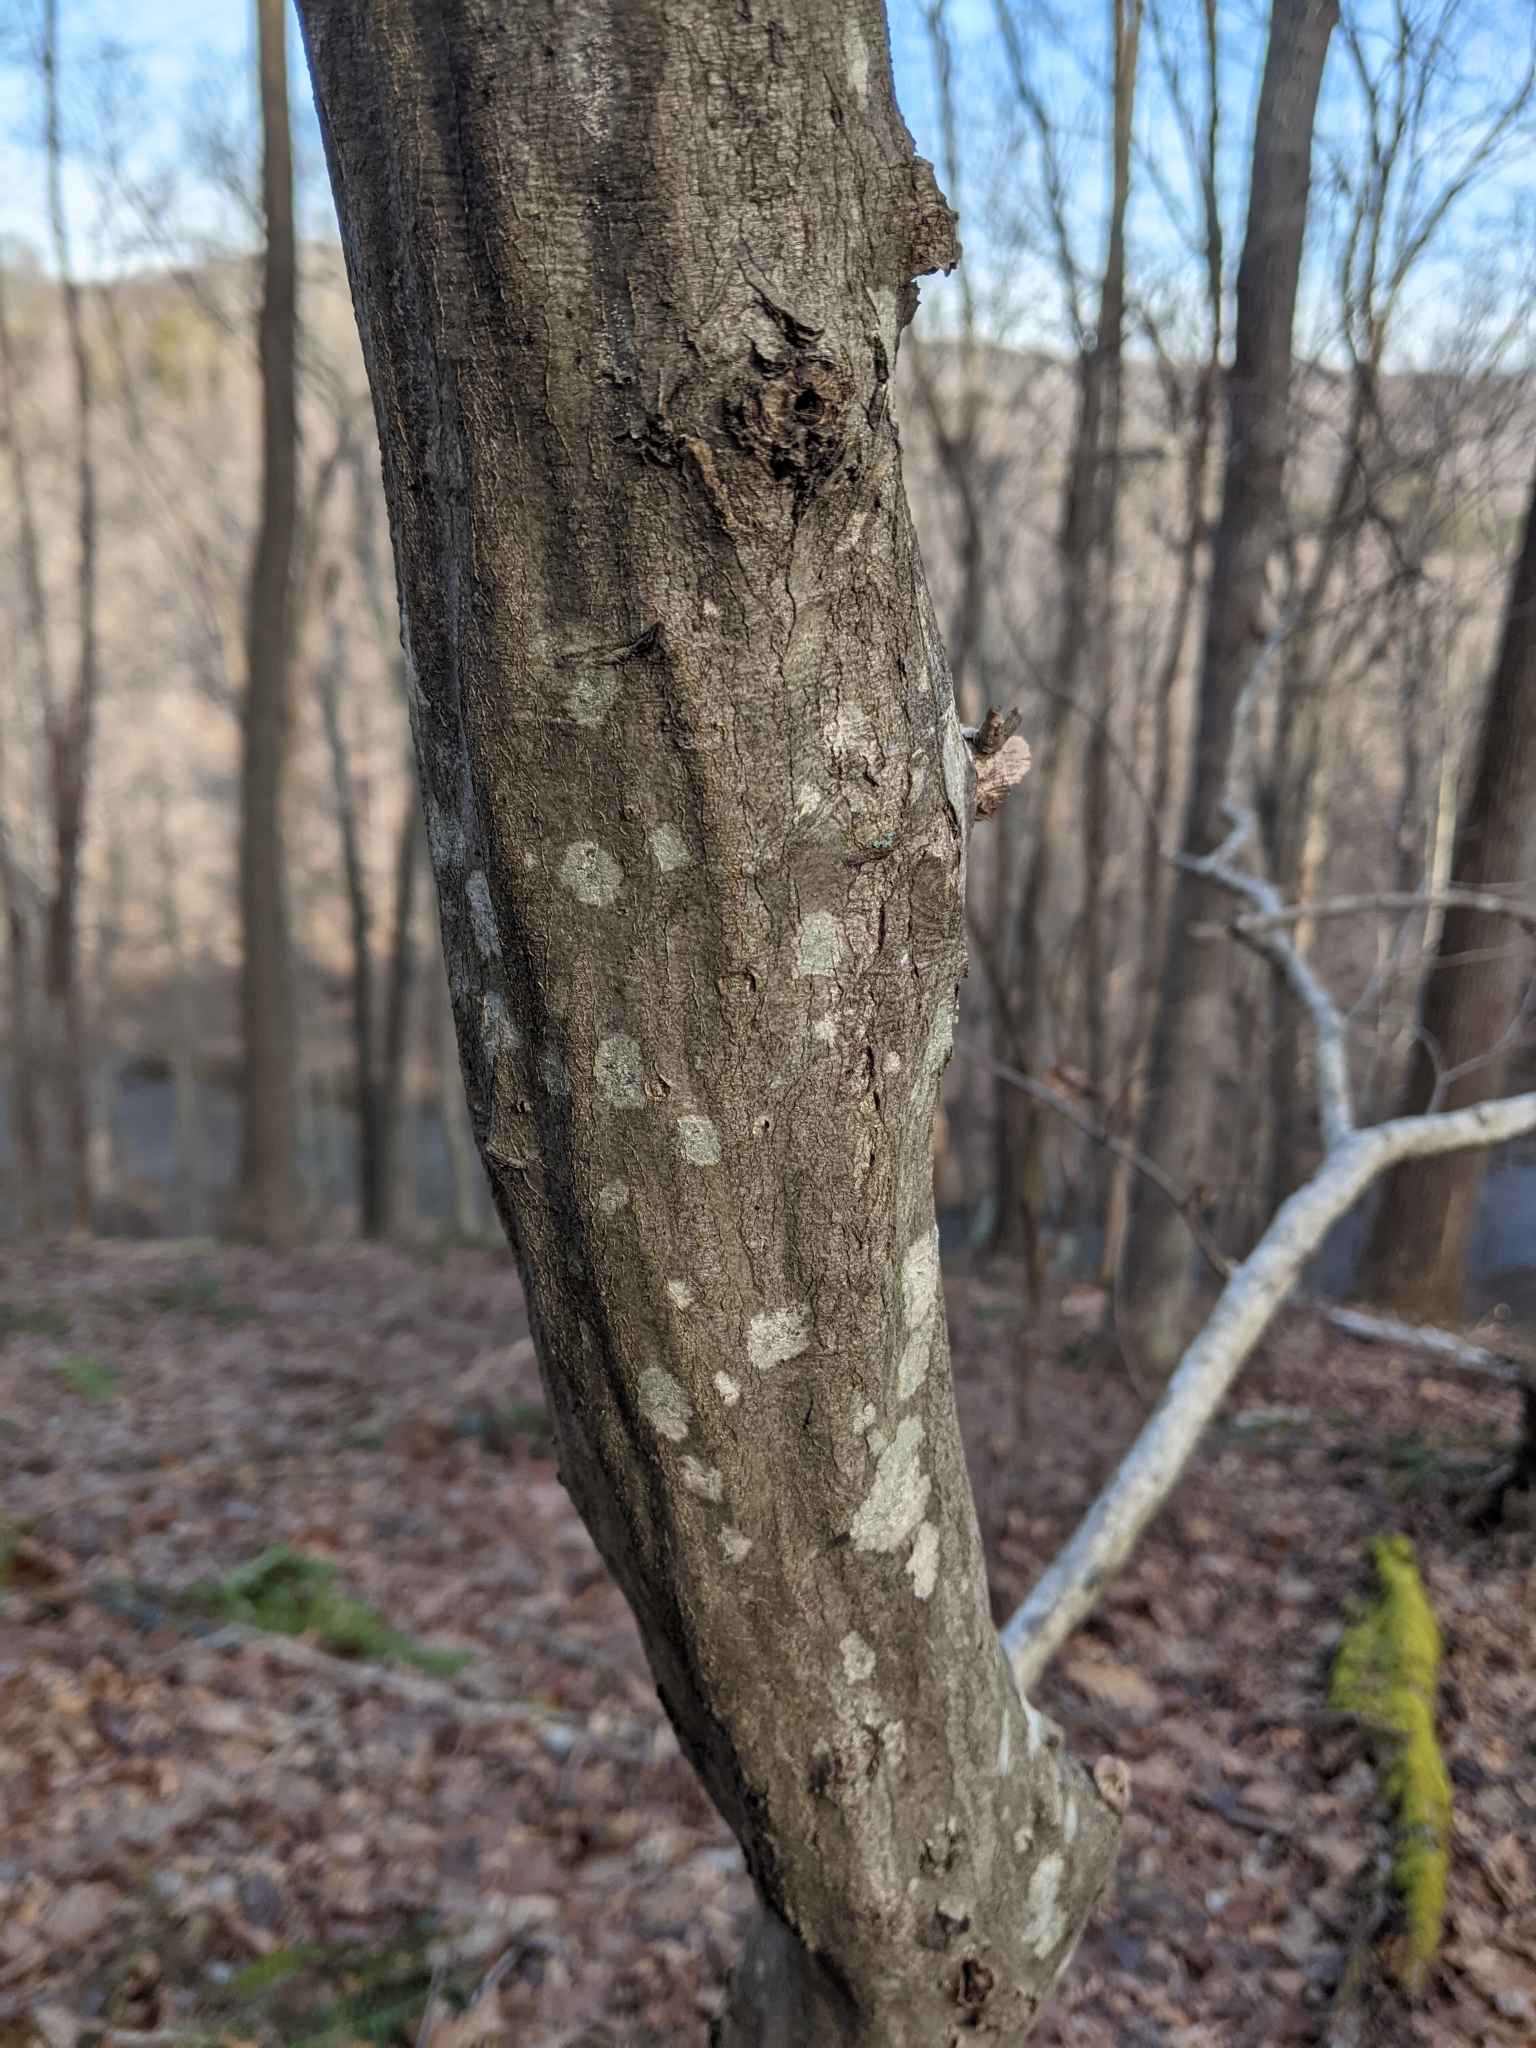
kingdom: Plantae
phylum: Tracheophyta
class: Magnoliopsida
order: Fagales
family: Betulaceae
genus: Carpinus
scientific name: Carpinus caroliniana
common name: American hornbeam
